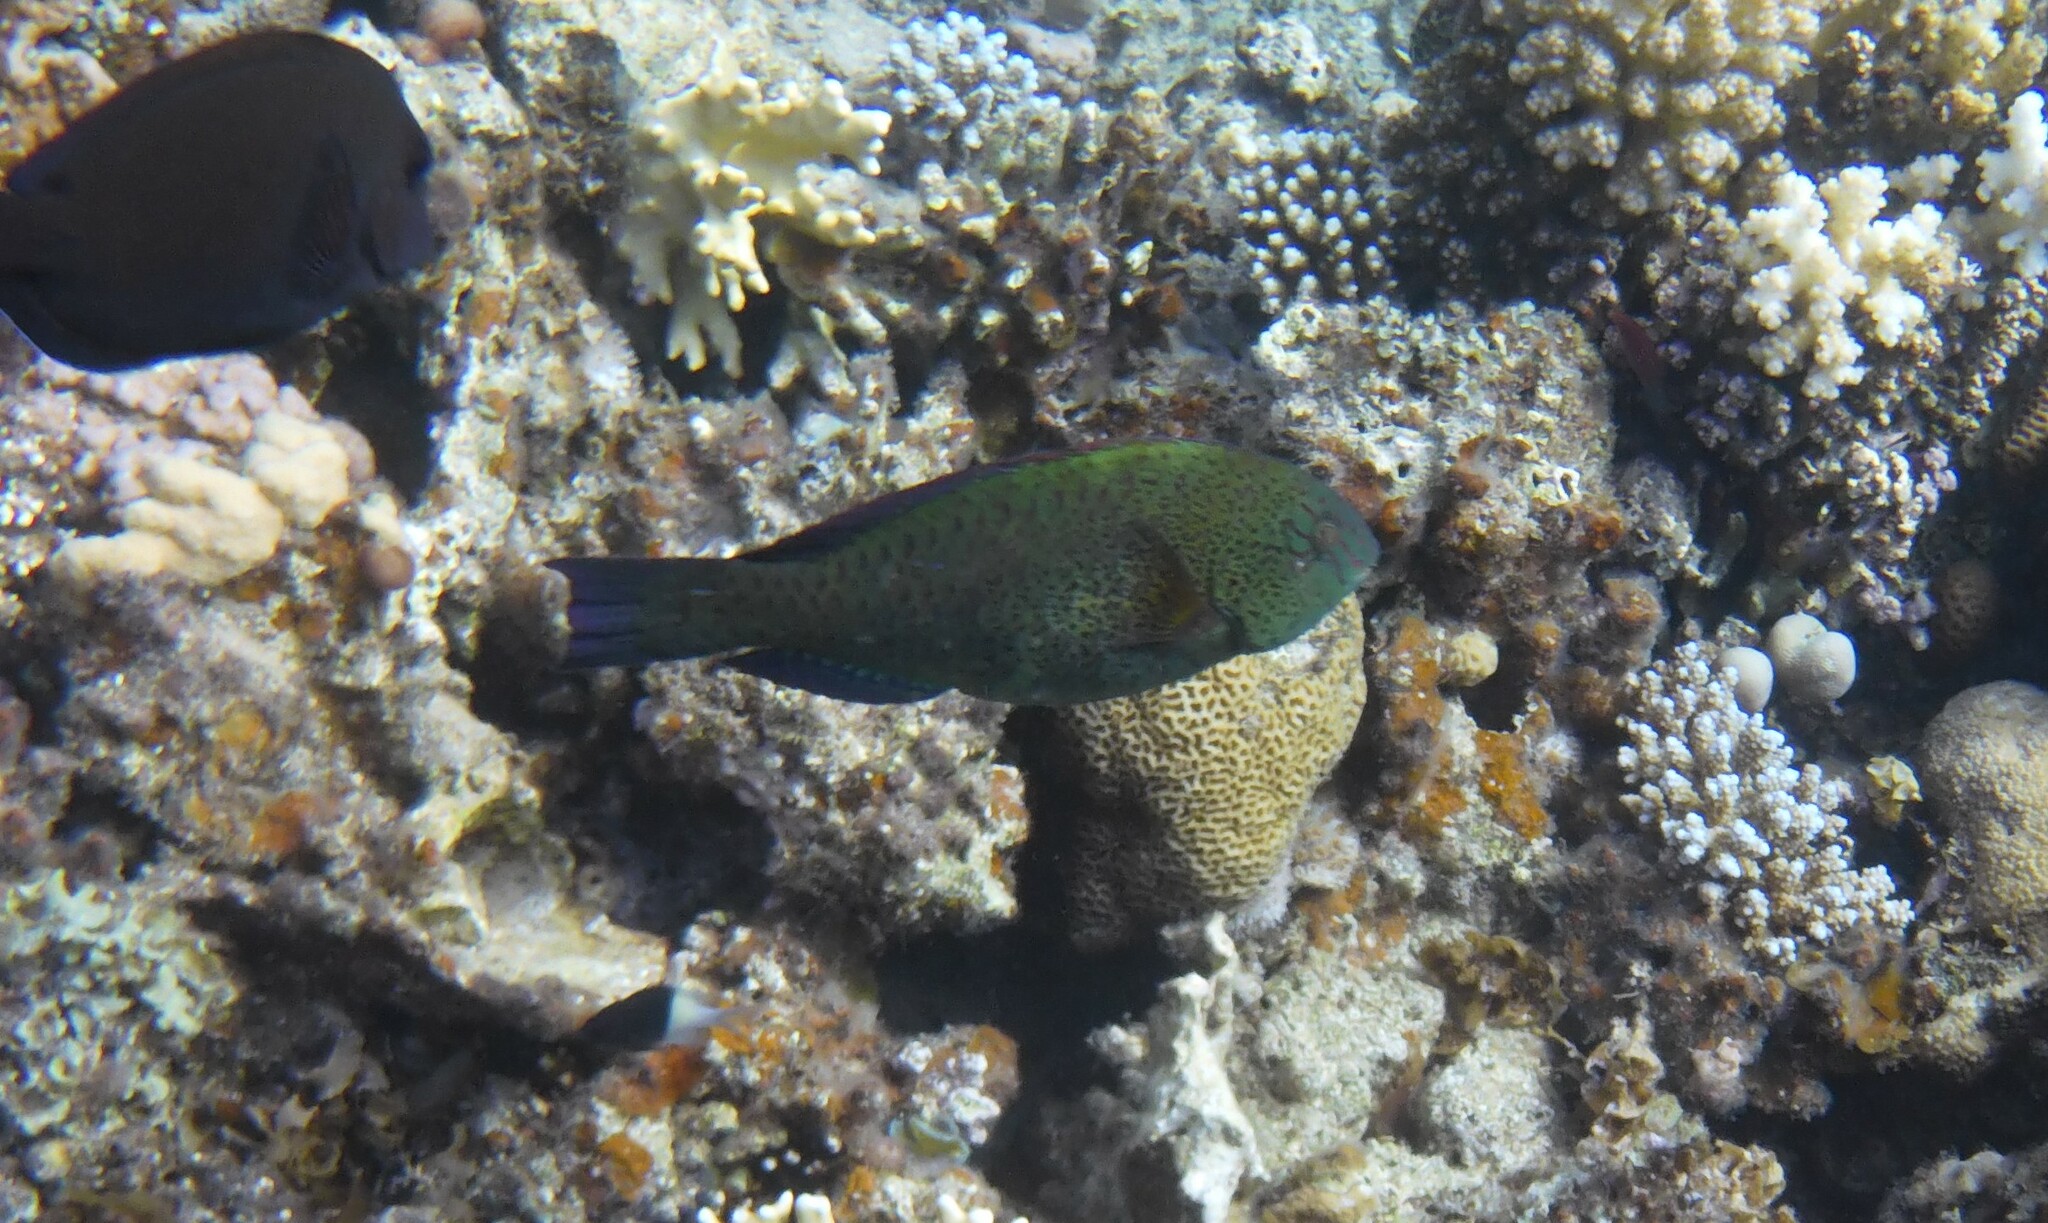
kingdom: Animalia
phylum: Chordata
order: Perciformes
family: Scaridae
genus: Calotomus
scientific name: Calotomus viridescens
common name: Dotted parrotfish
